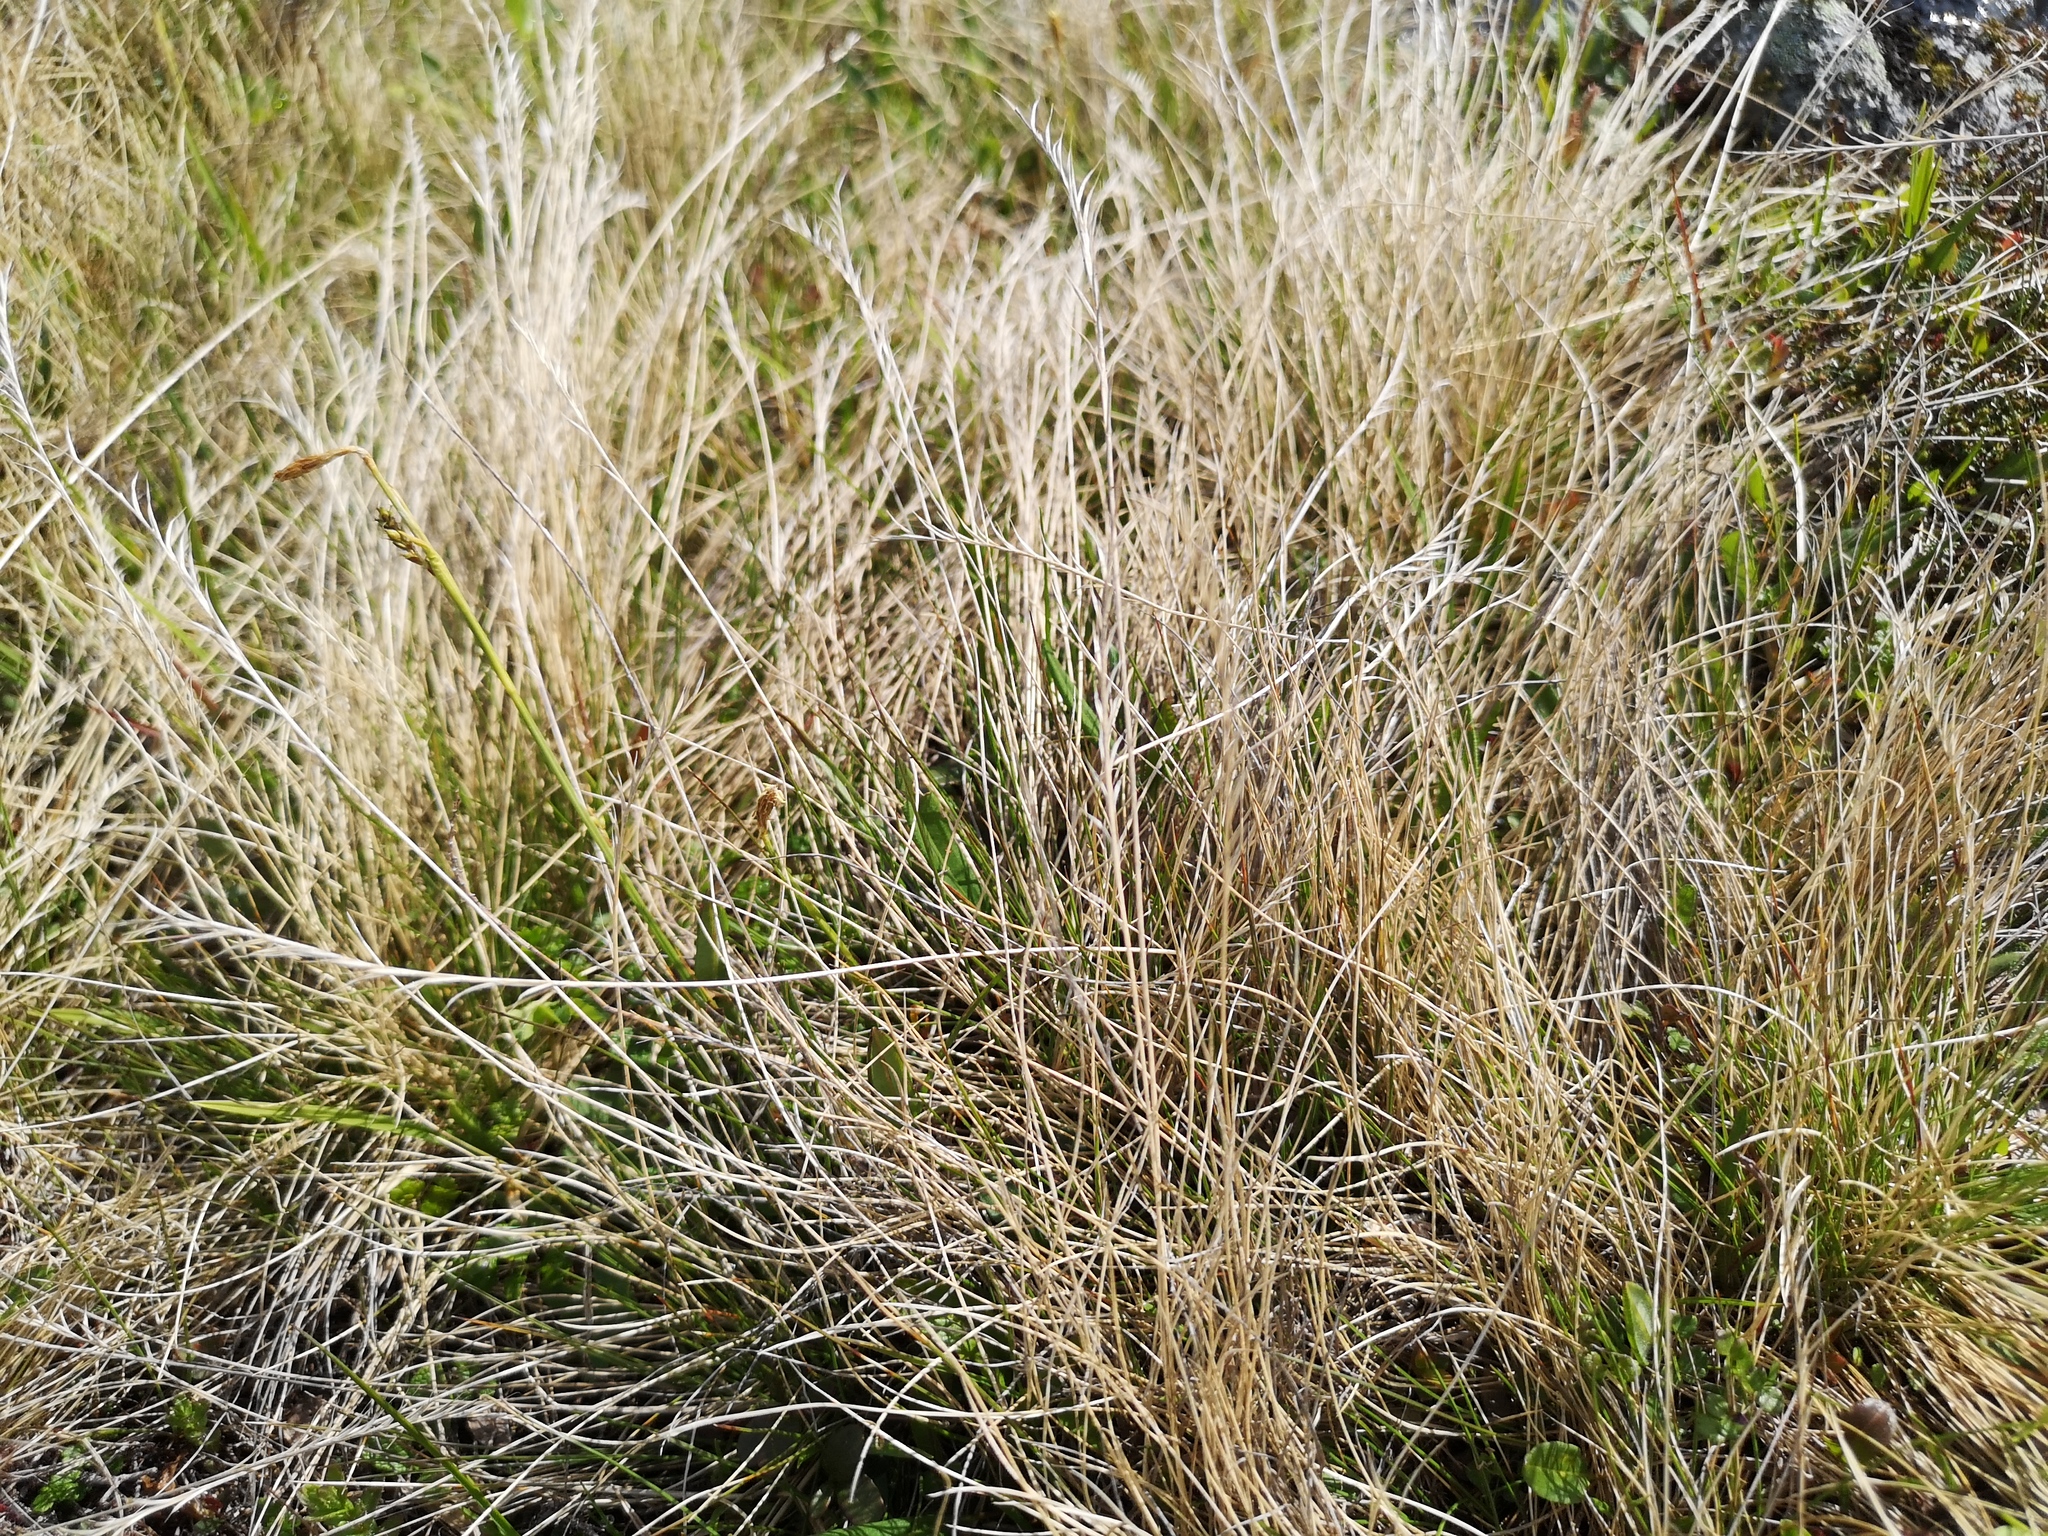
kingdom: Plantae
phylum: Tracheophyta
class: Liliopsida
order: Poales
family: Poaceae
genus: Nardus
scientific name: Nardus stricta
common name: Mat-grass
